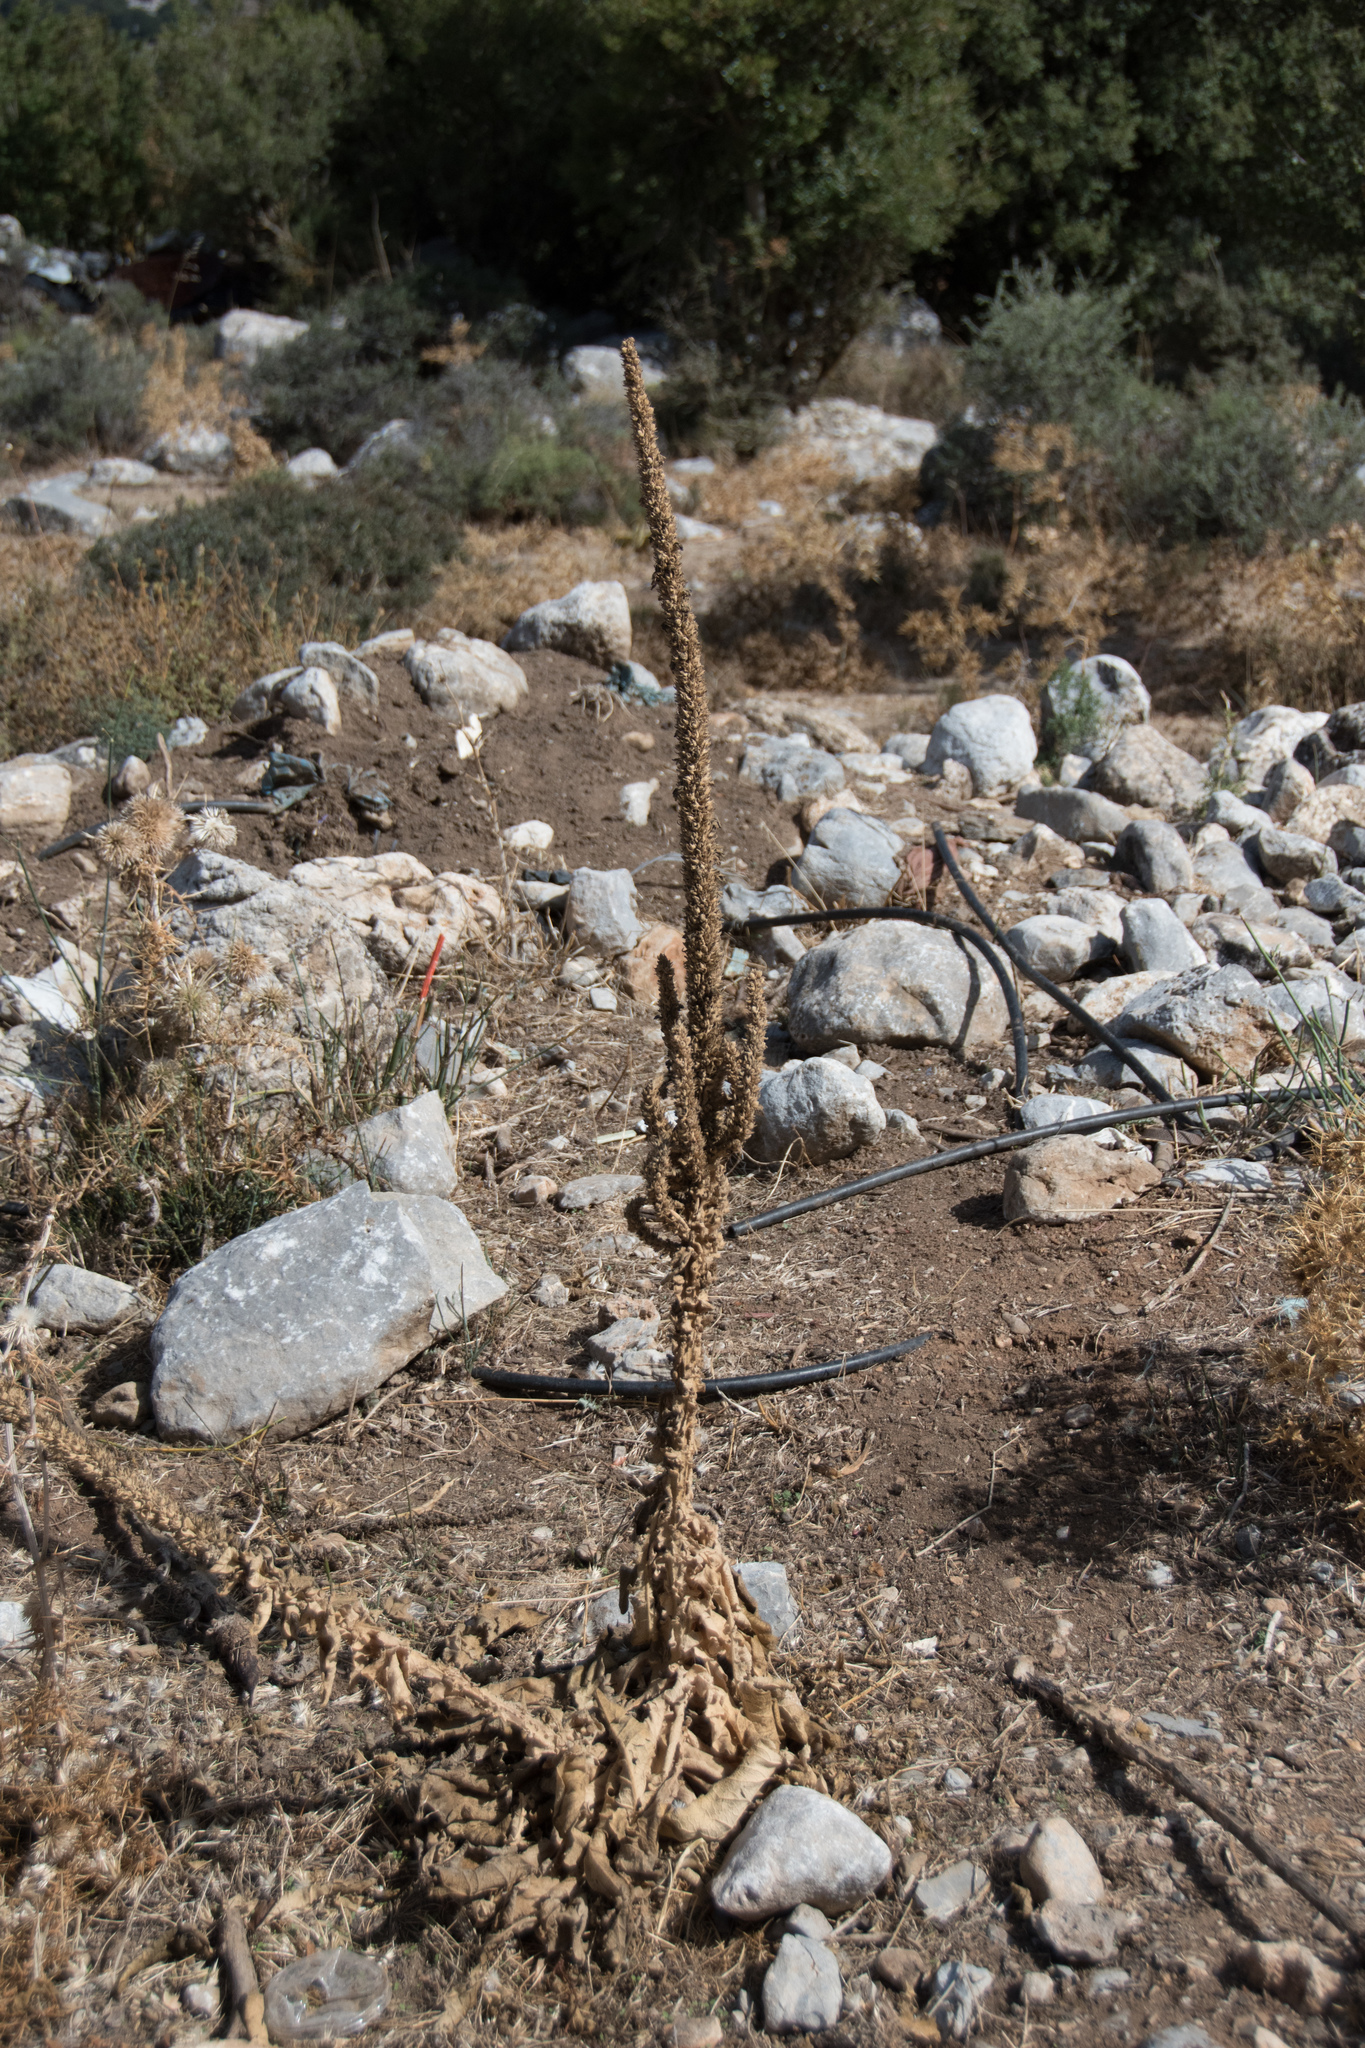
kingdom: Plantae
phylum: Tracheophyta
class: Magnoliopsida
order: Lamiales
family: Scrophulariaceae
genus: Verbascum
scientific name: Verbascum macrurum
